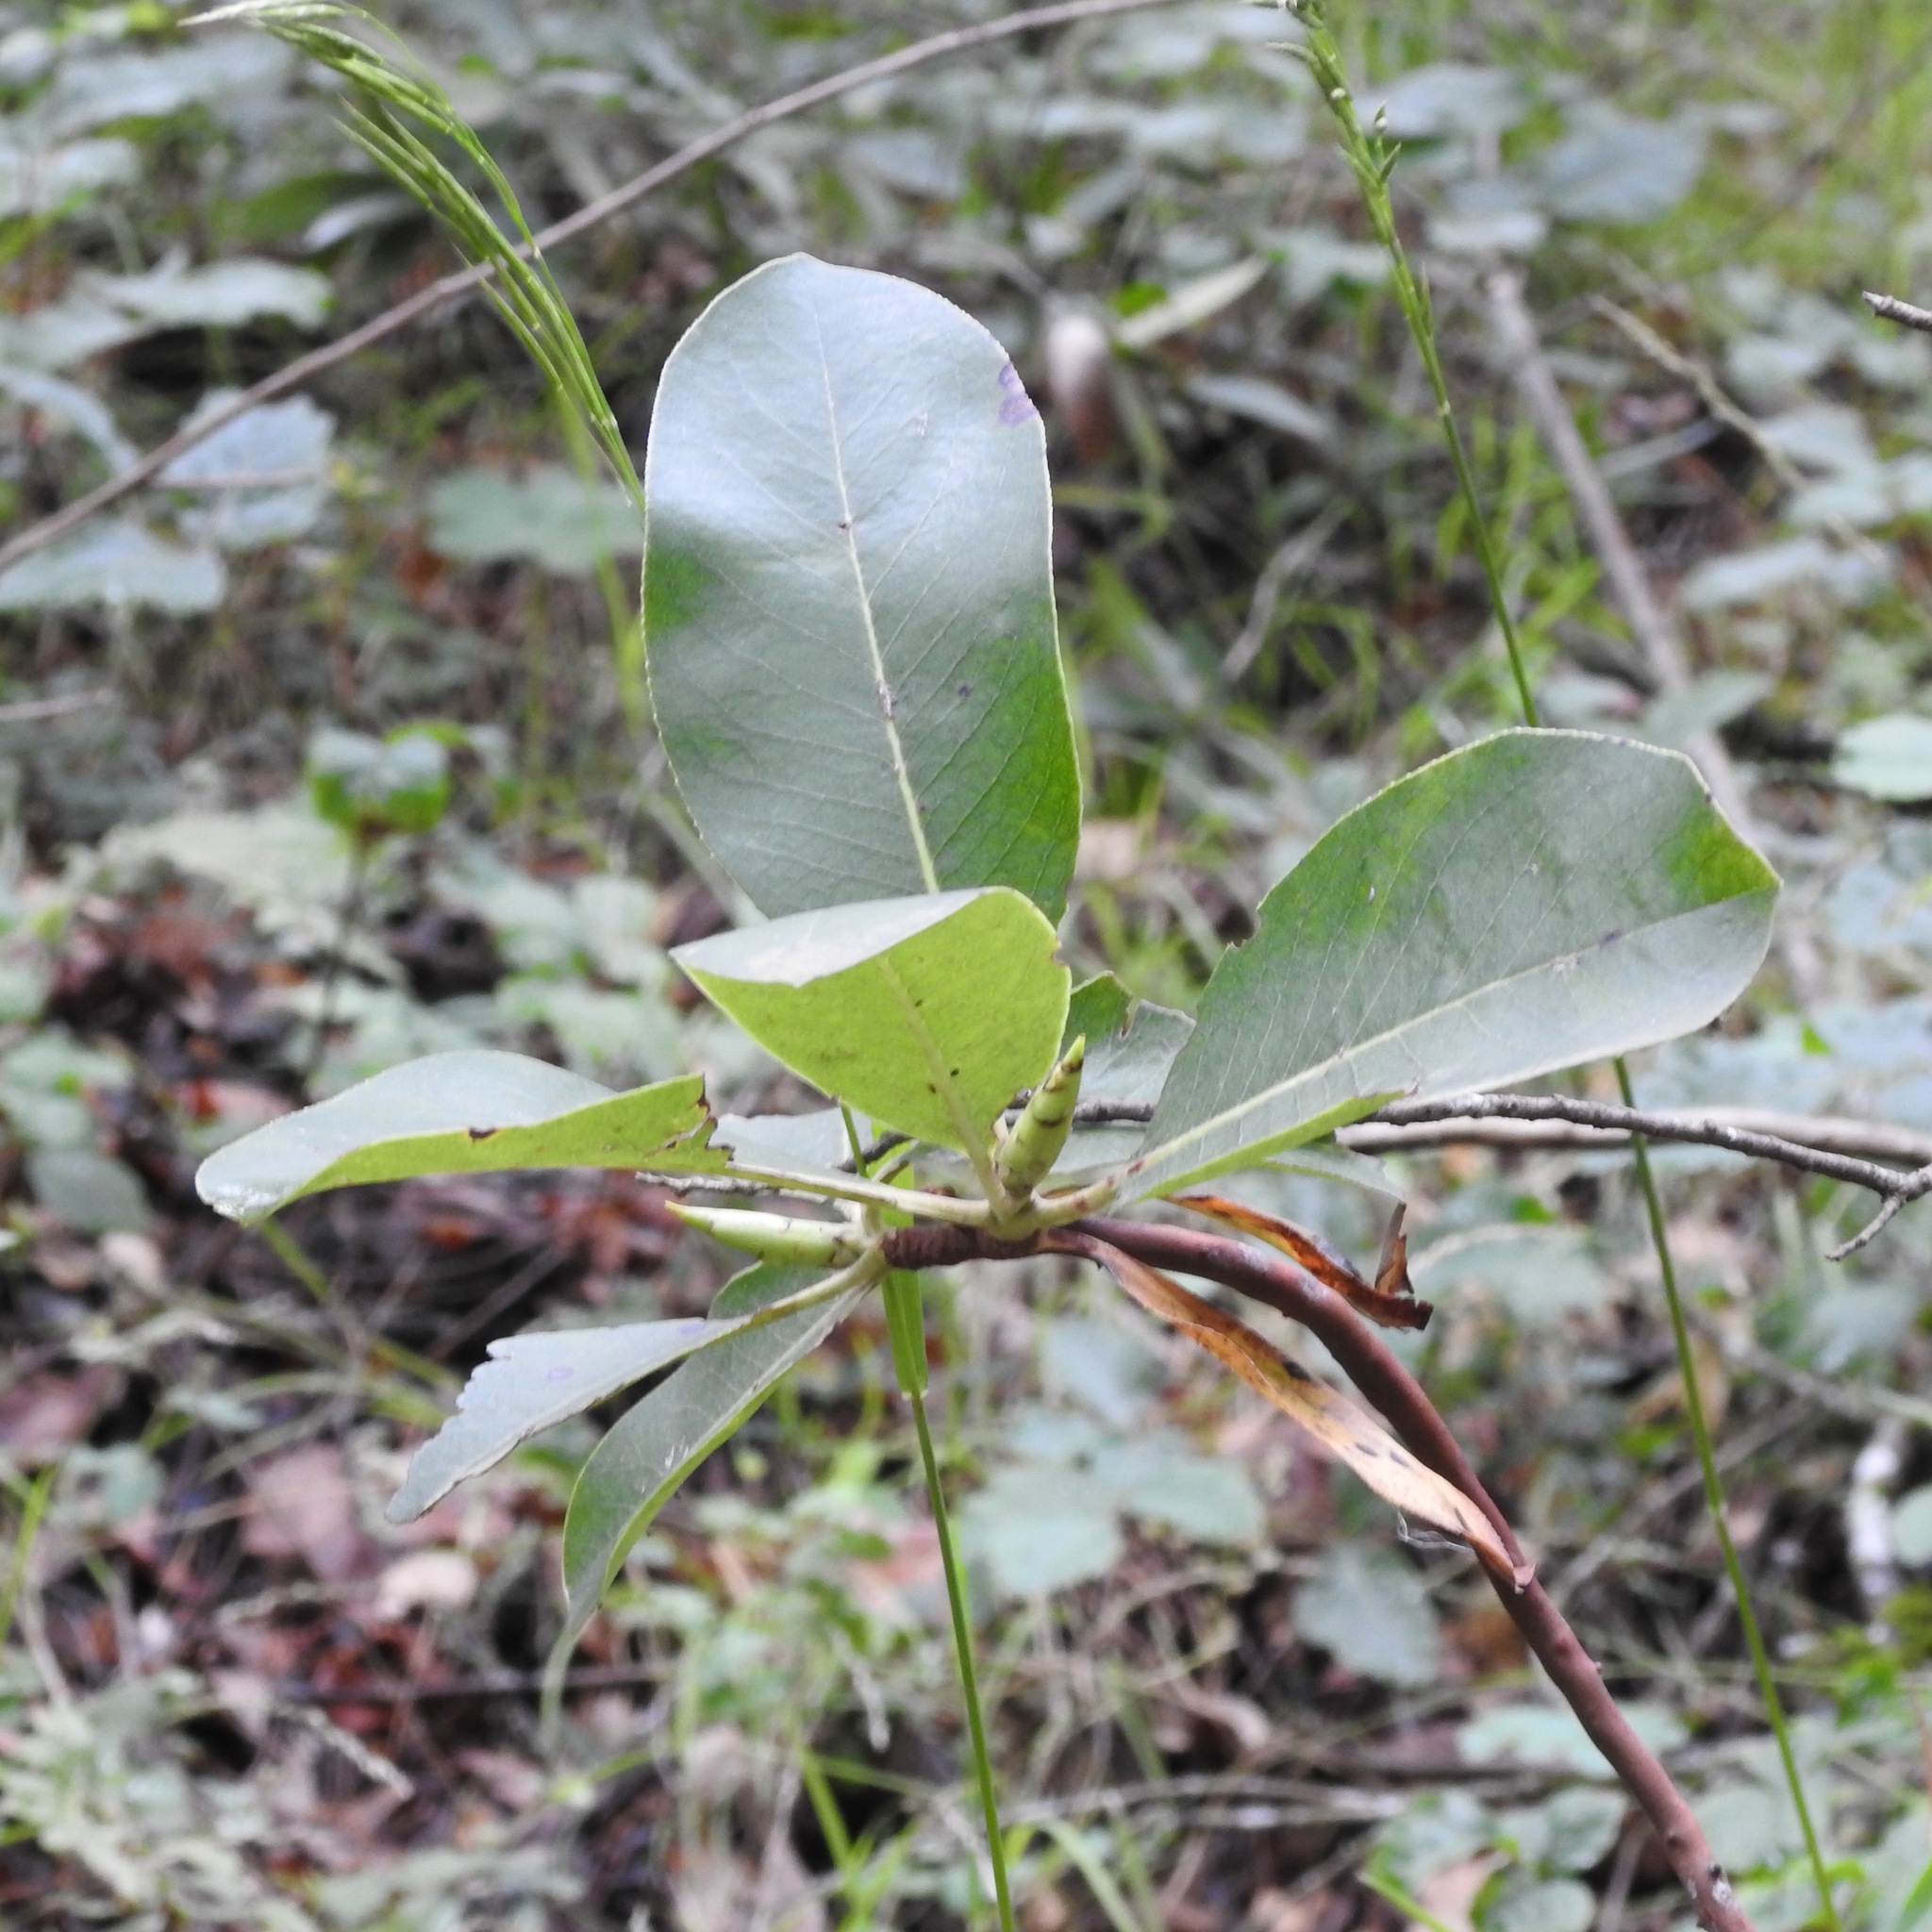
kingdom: Plantae
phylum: Tracheophyta
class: Magnoliopsida
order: Ericales
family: Ericaceae
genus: Arbutus
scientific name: Arbutus menziesii
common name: Pacific madrone
